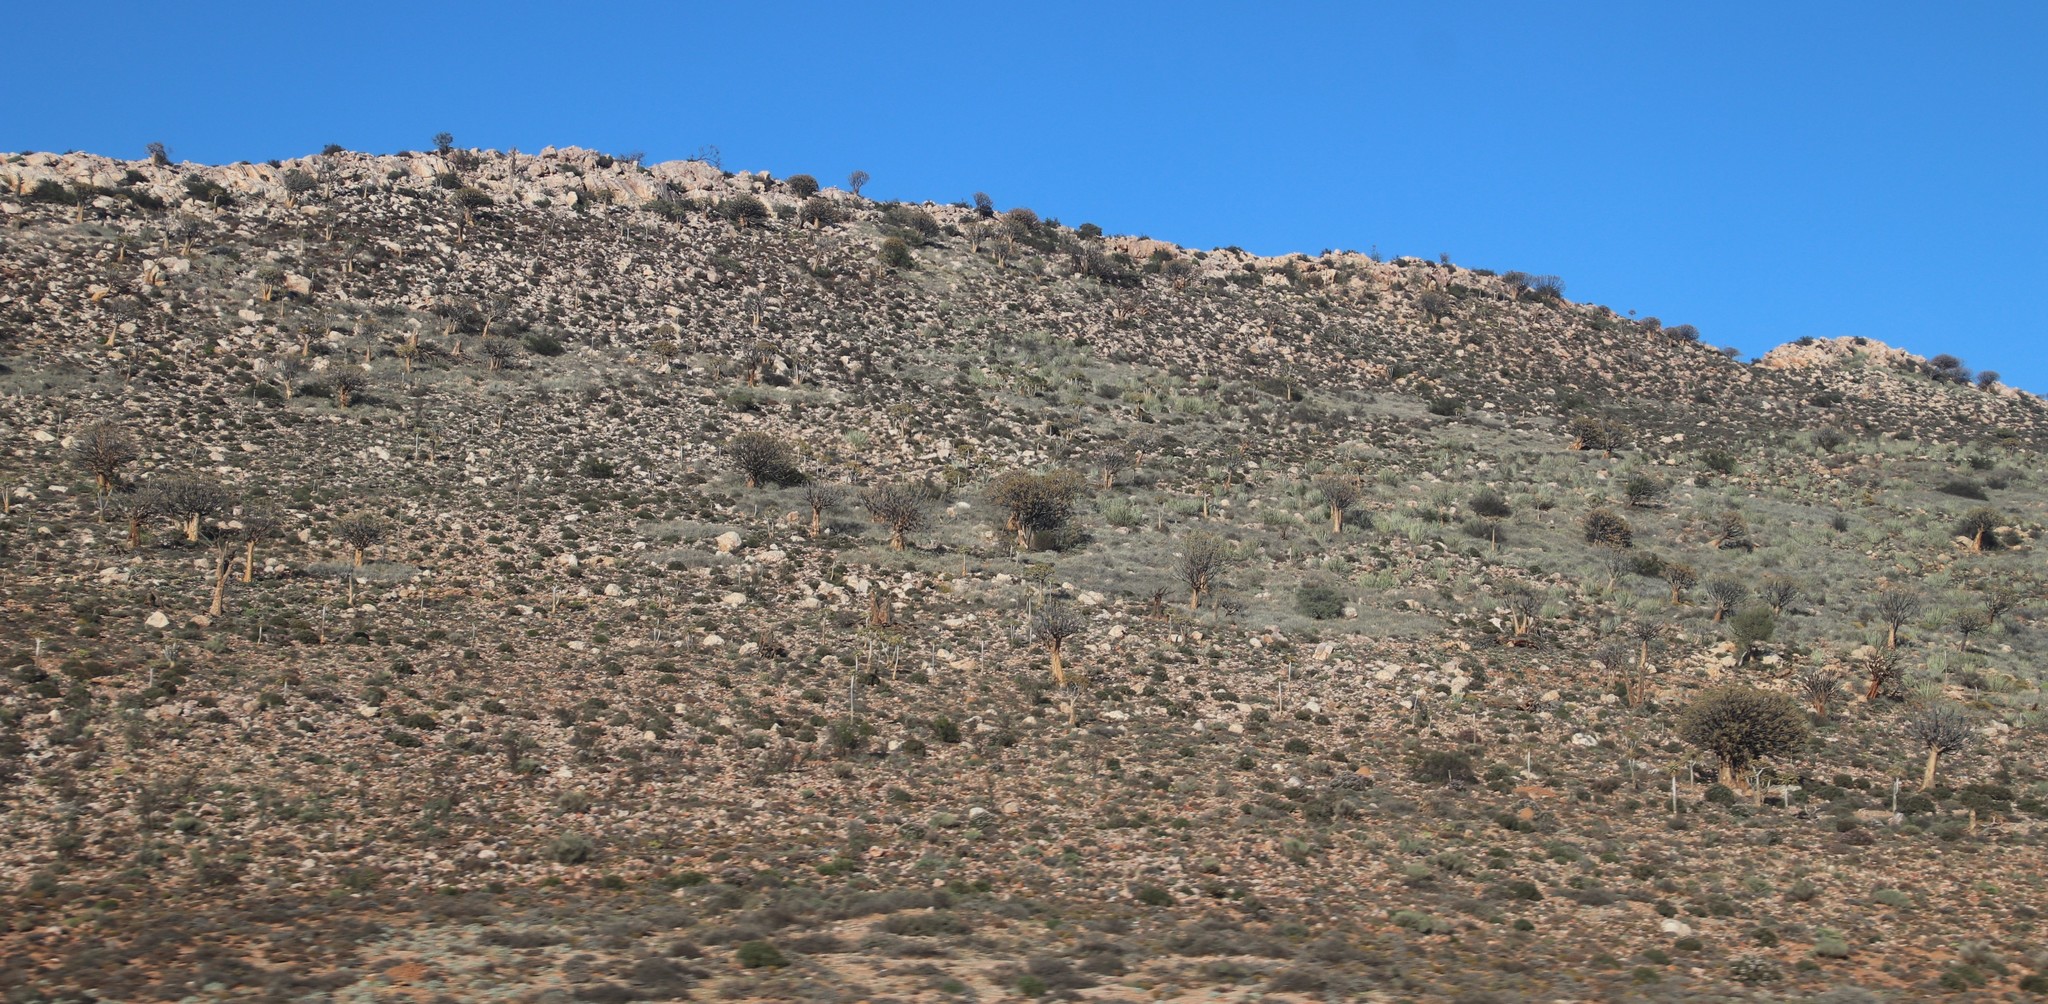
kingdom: Plantae
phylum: Tracheophyta
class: Liliopsida
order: Asparagales
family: Asphodelaceae
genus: Aloidendron
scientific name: Aloidendron dichotomum
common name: Quiver tree
